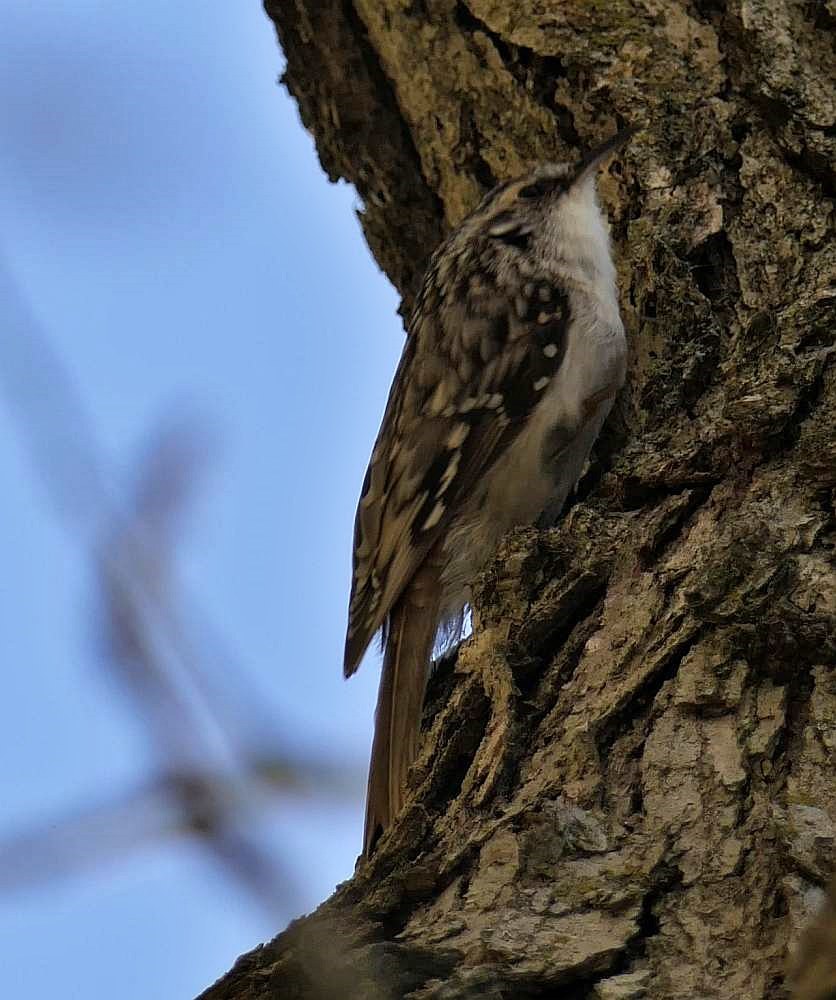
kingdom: Animalia
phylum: Chordata
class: Aves
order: Passeriformes
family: Certhiidae
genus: Certhia
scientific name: Certhia americana
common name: Brown creeper
